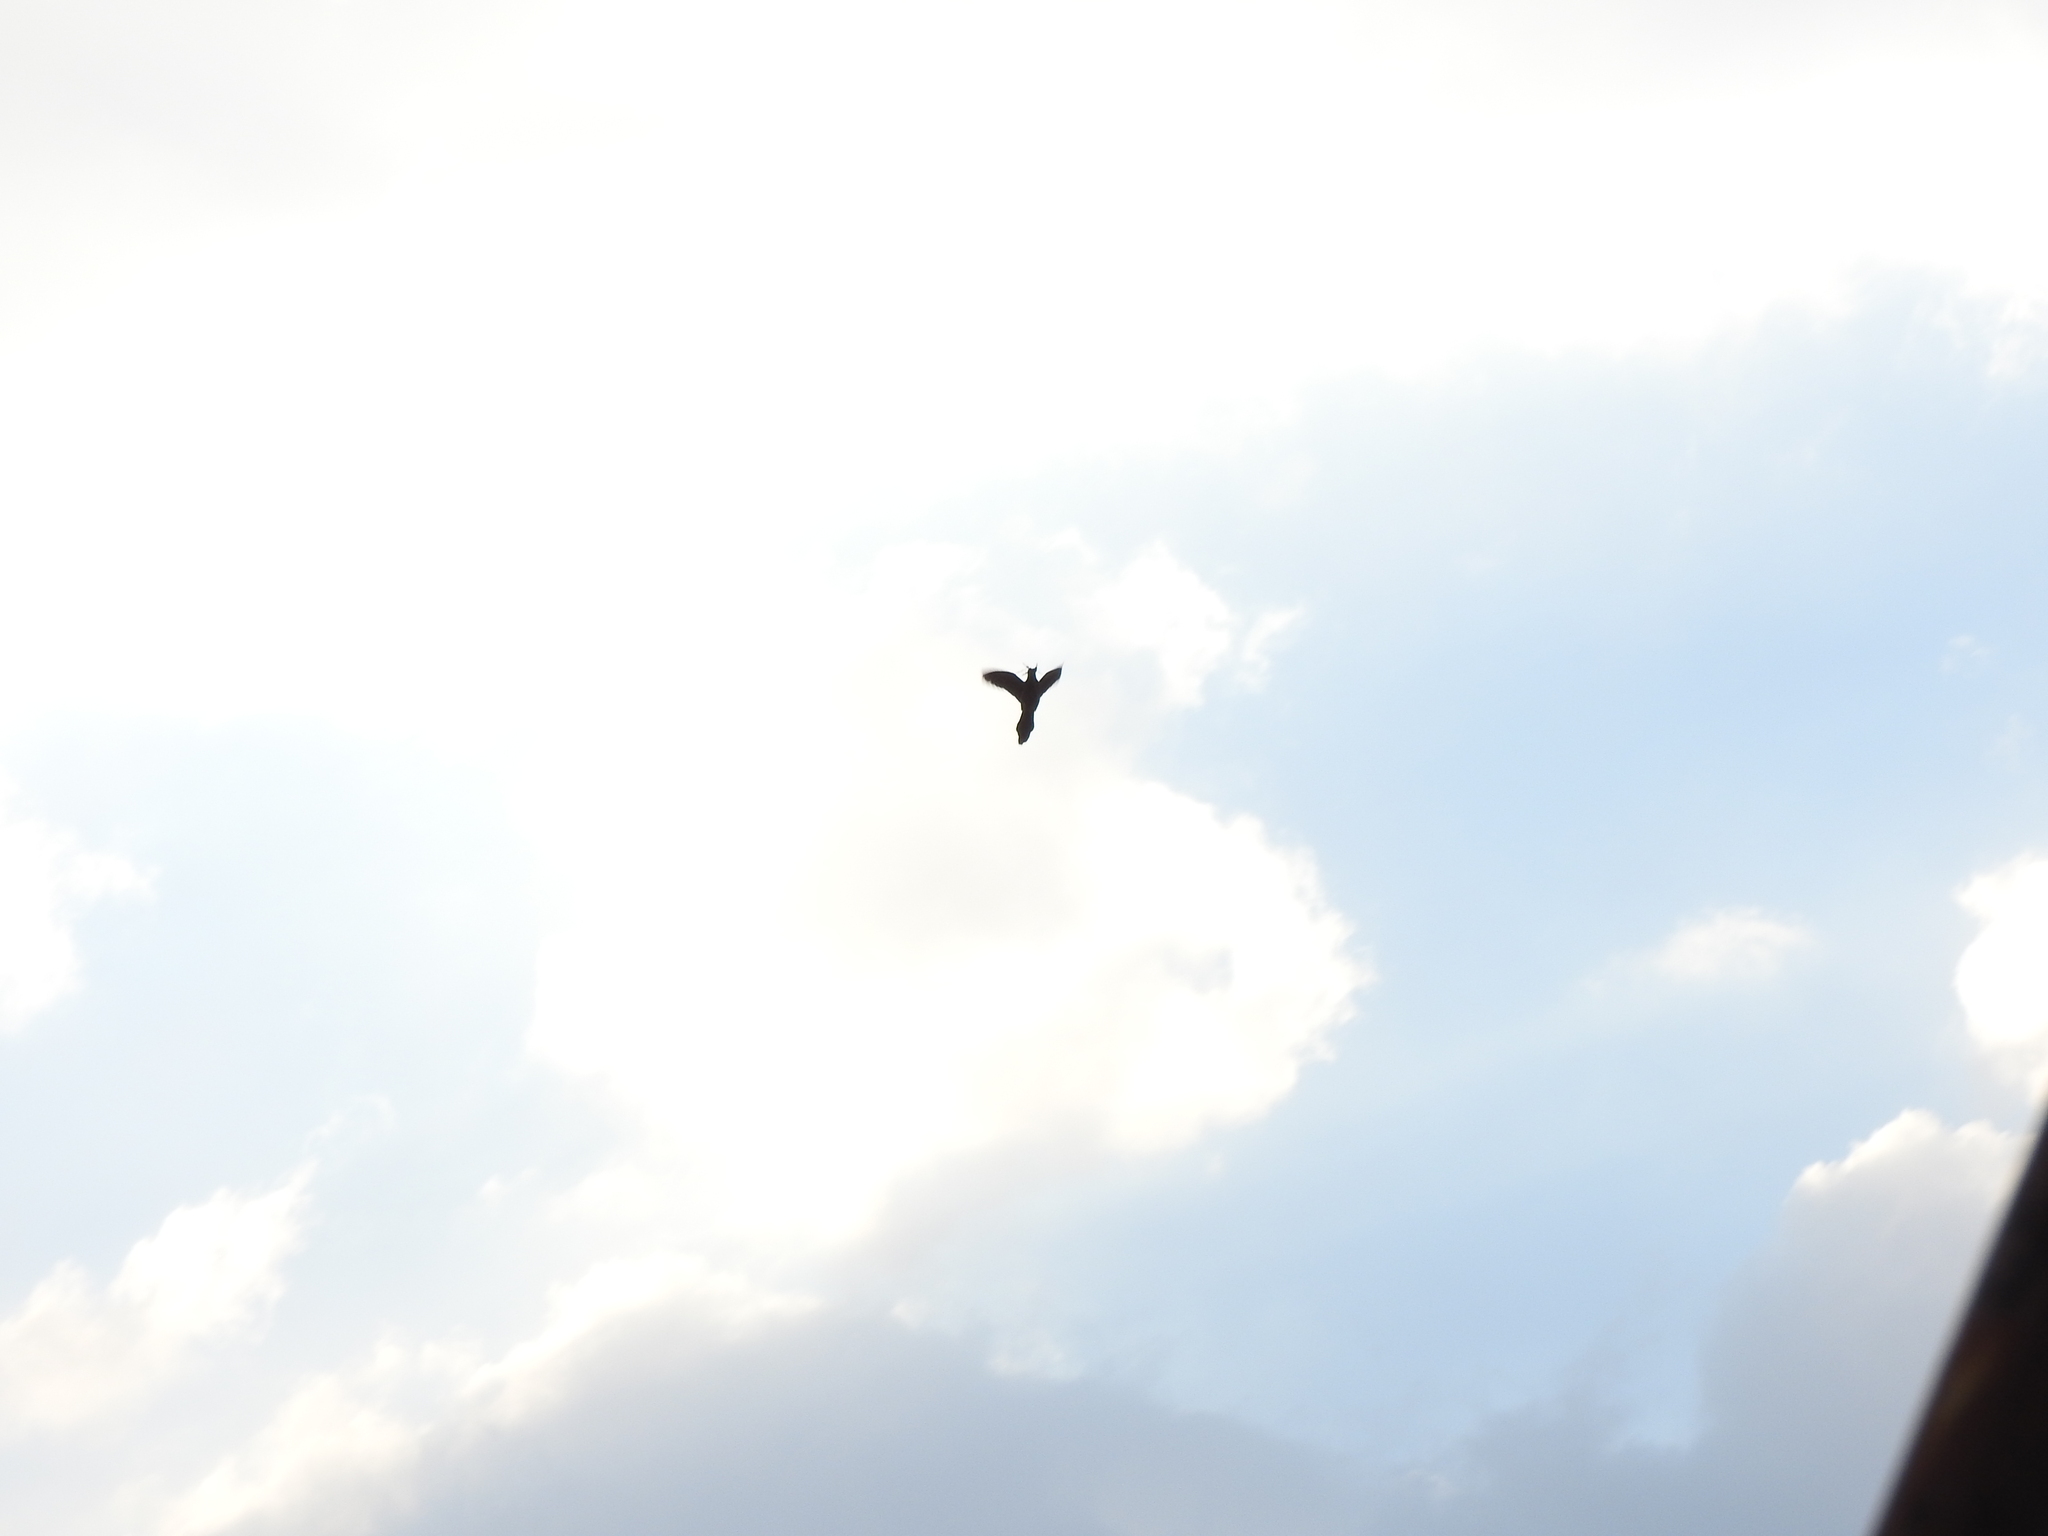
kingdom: Animalia
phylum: Chordata
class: Aves
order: Passeriformes
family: Icteridae
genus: Quiscalus
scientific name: Quiscalus mexicanus
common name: Great-tailed grackle
